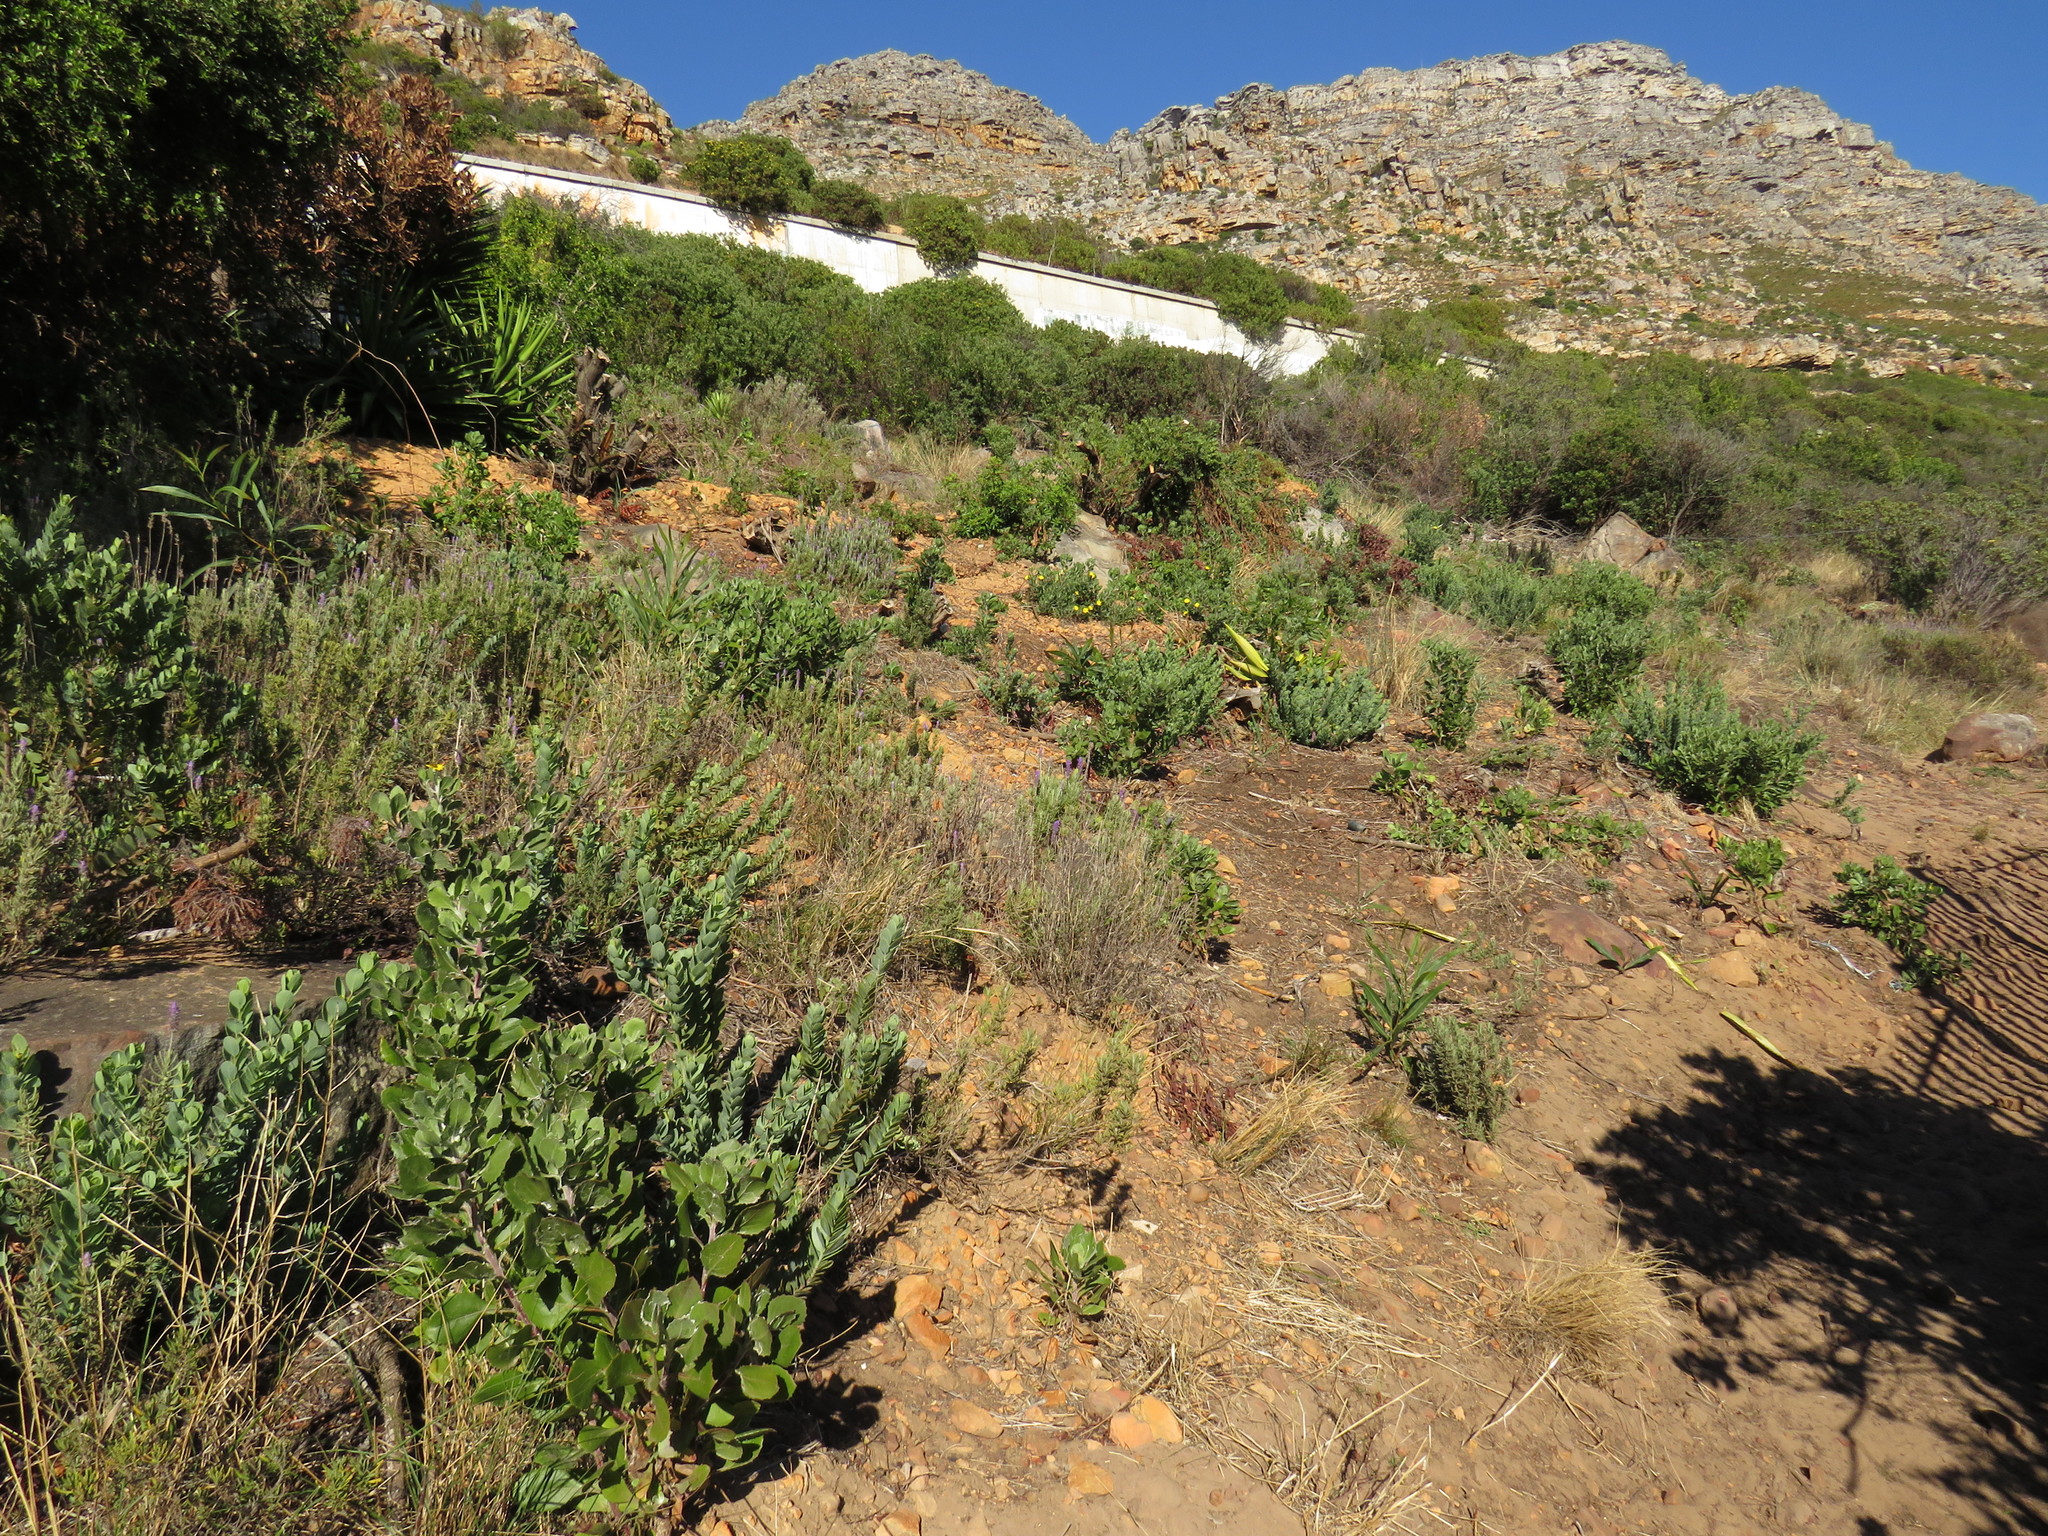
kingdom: Plantae
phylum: Tracheophyta
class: Magnoliopsida
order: Asterales
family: Asteraceae
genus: Osteospermum
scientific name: Osteospermum moniliferum
